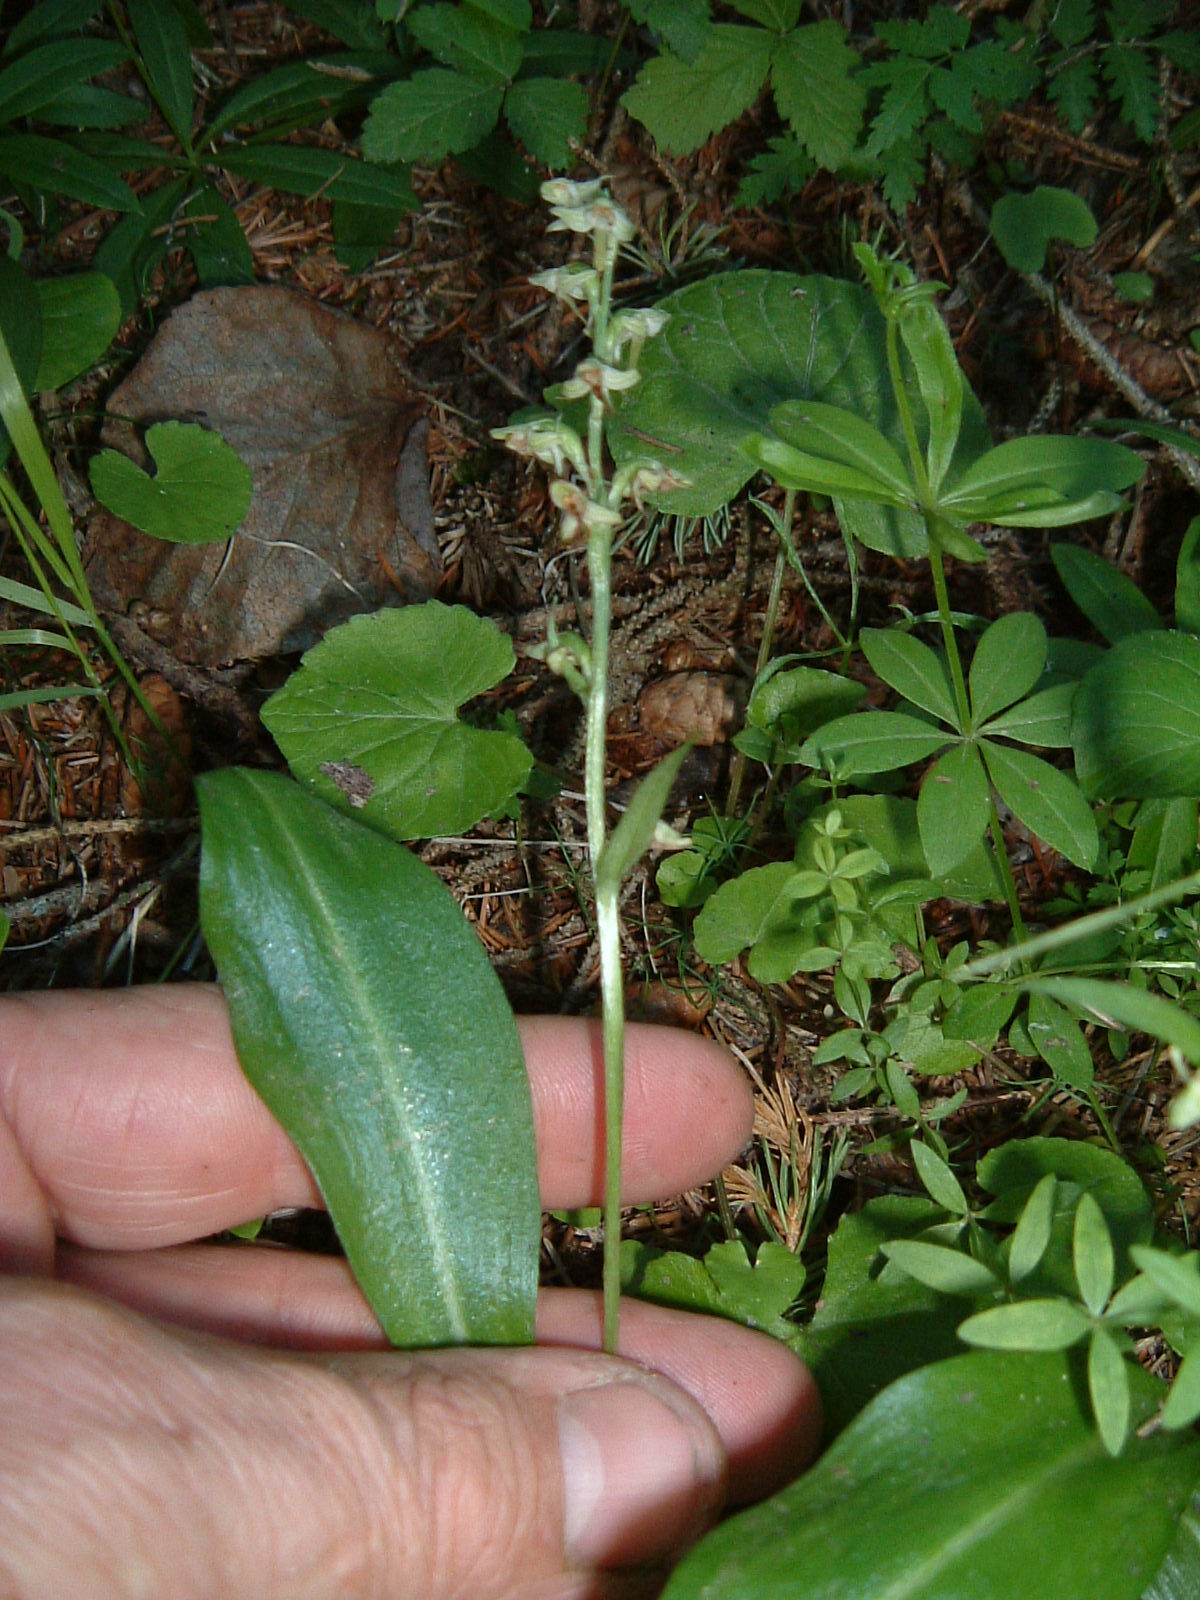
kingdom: Plantae
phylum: Tracheophyta
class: Liliopsida
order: Asparagales
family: Orchidaceae
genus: Platanthera
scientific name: Platanthera obtusata
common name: Blunt bog orchid
